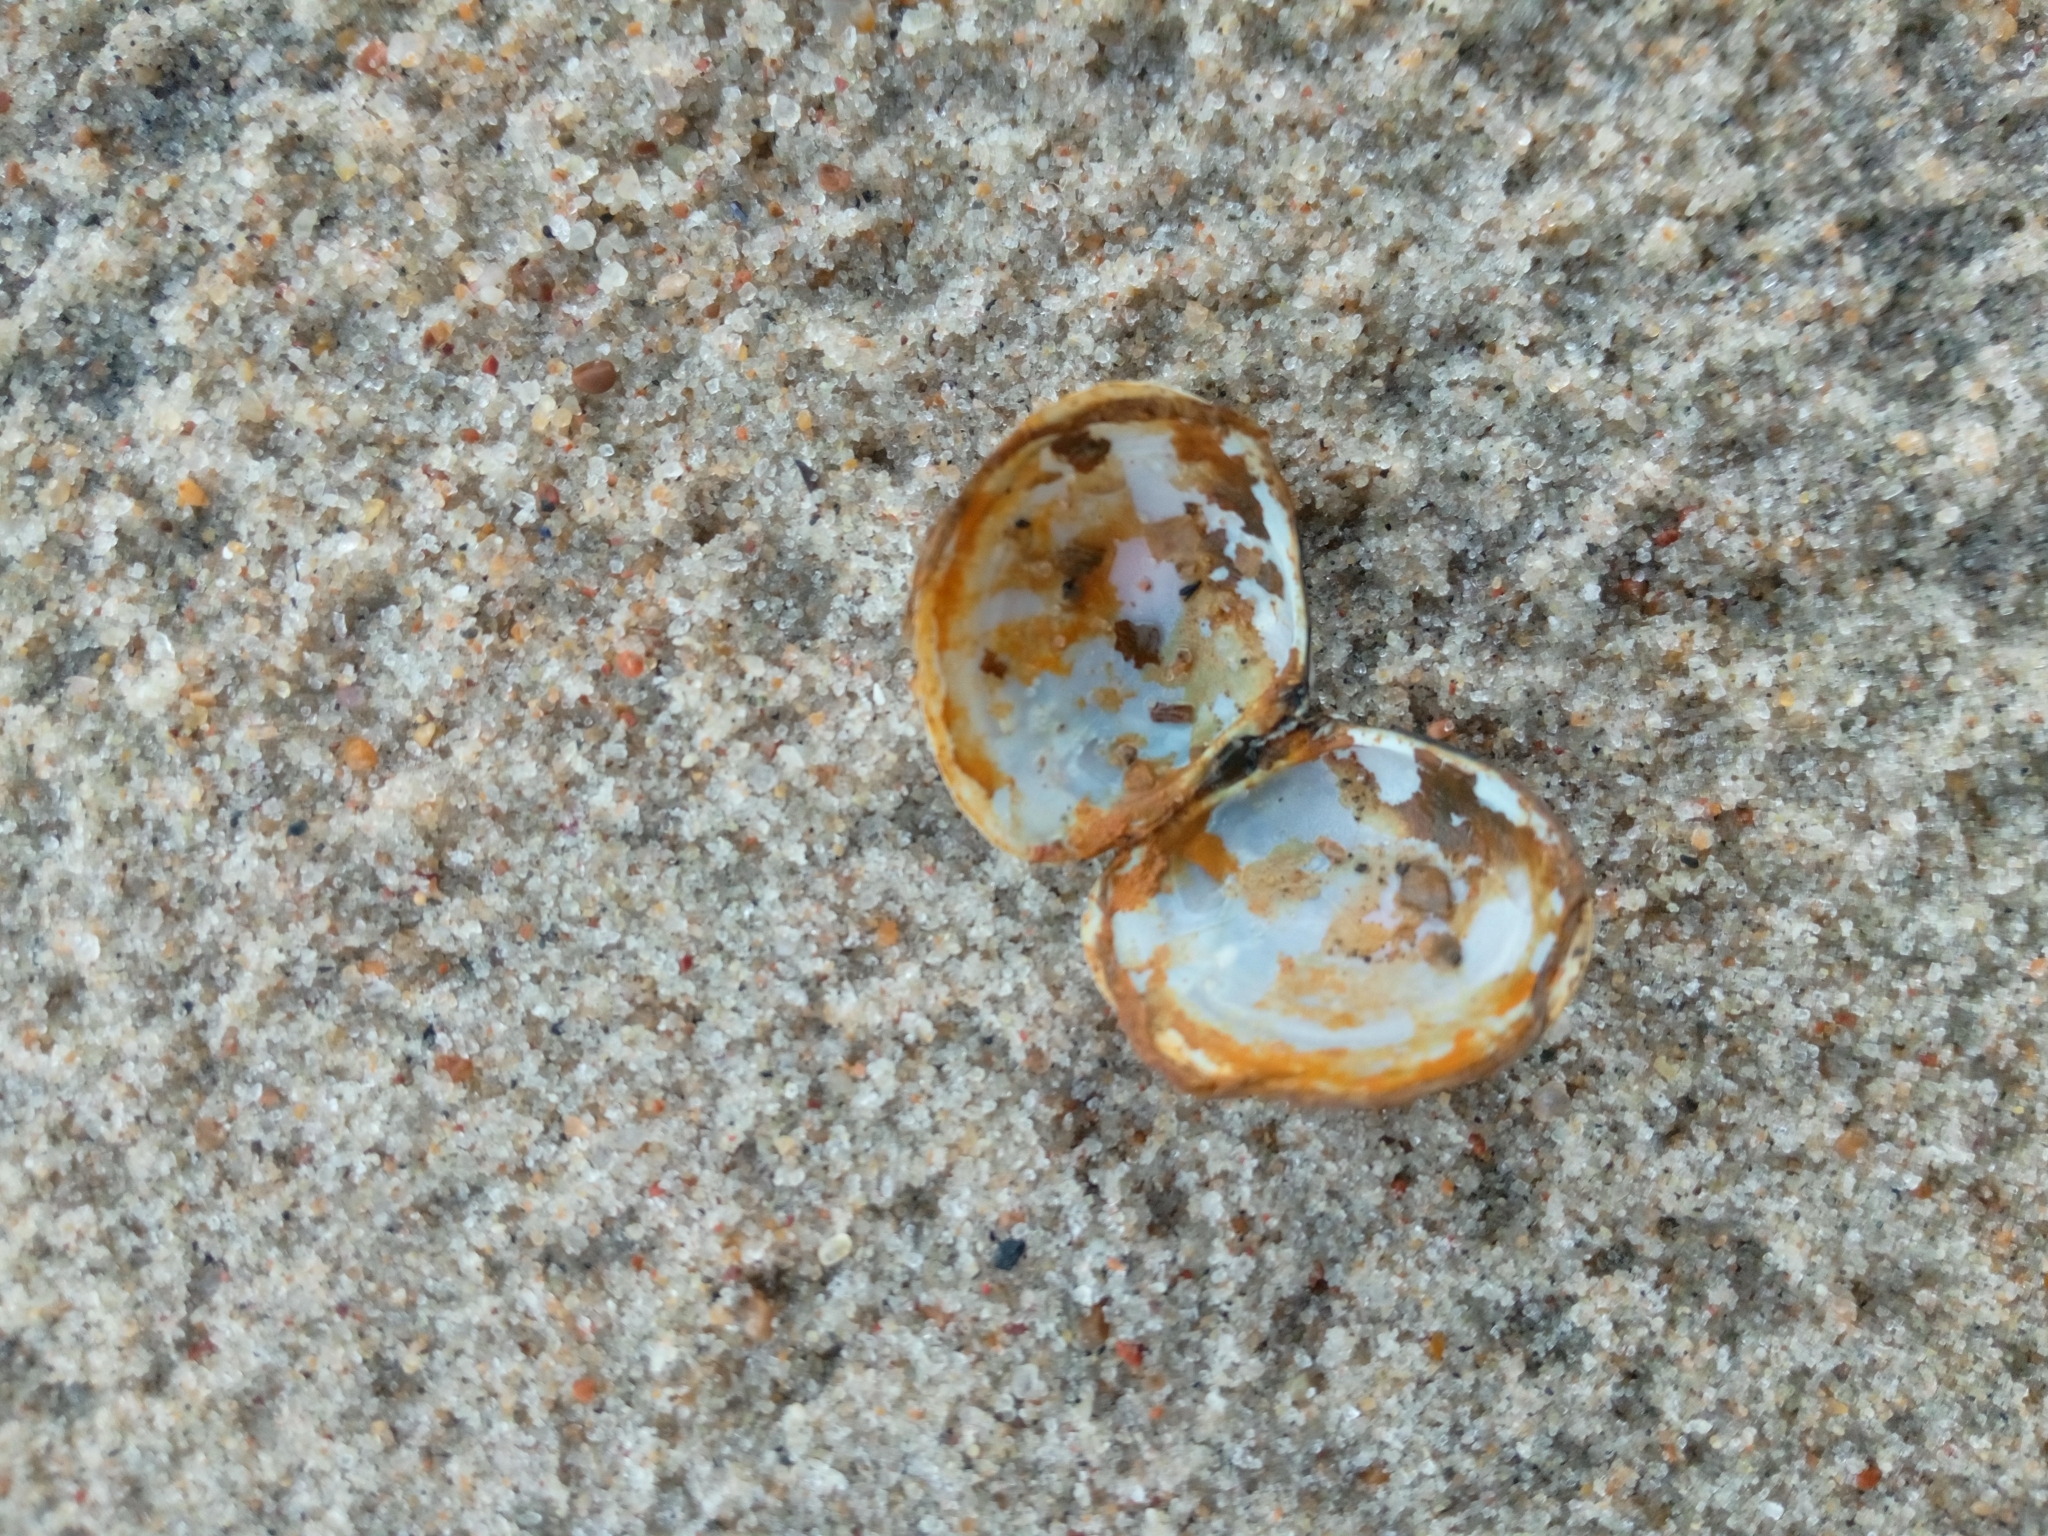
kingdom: Animalia
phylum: Mollusca
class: Bivalvia
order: Cardiida
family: Tellinidae
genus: Macoma
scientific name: Macoma balthica
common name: Baltic tellin
